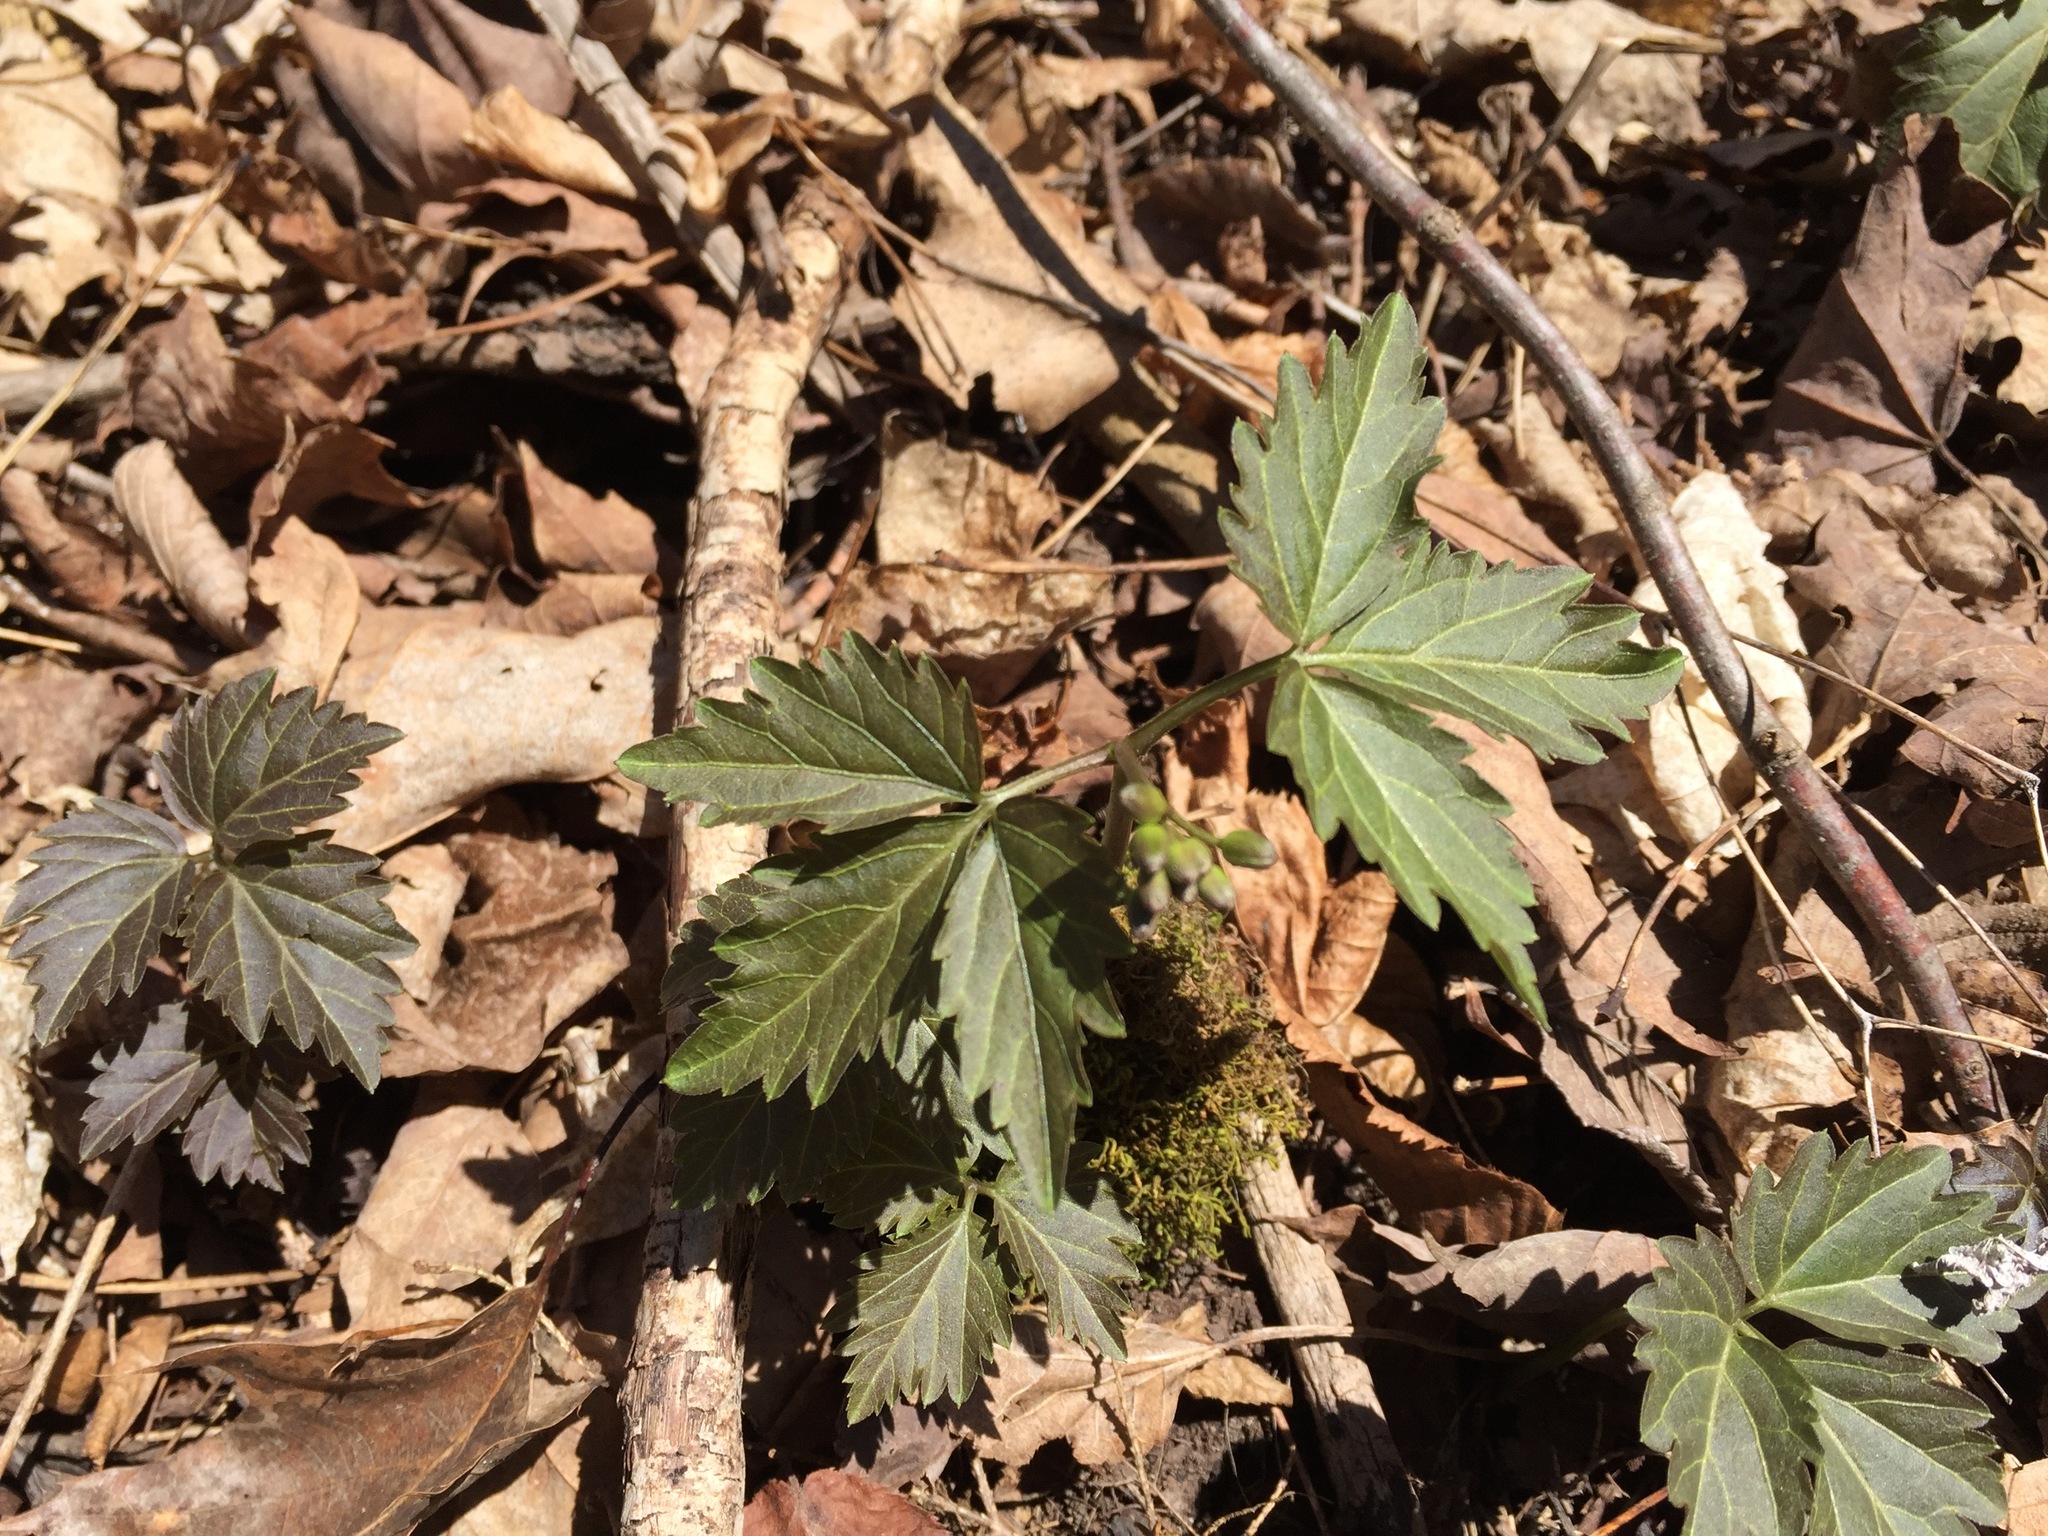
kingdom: Plantae
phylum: Tracheophyta
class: Magnoliopsida
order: Brassicales
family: Brassicaceae
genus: Cardamine
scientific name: Cardamine diphylla
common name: Broad-leaved toothwort
